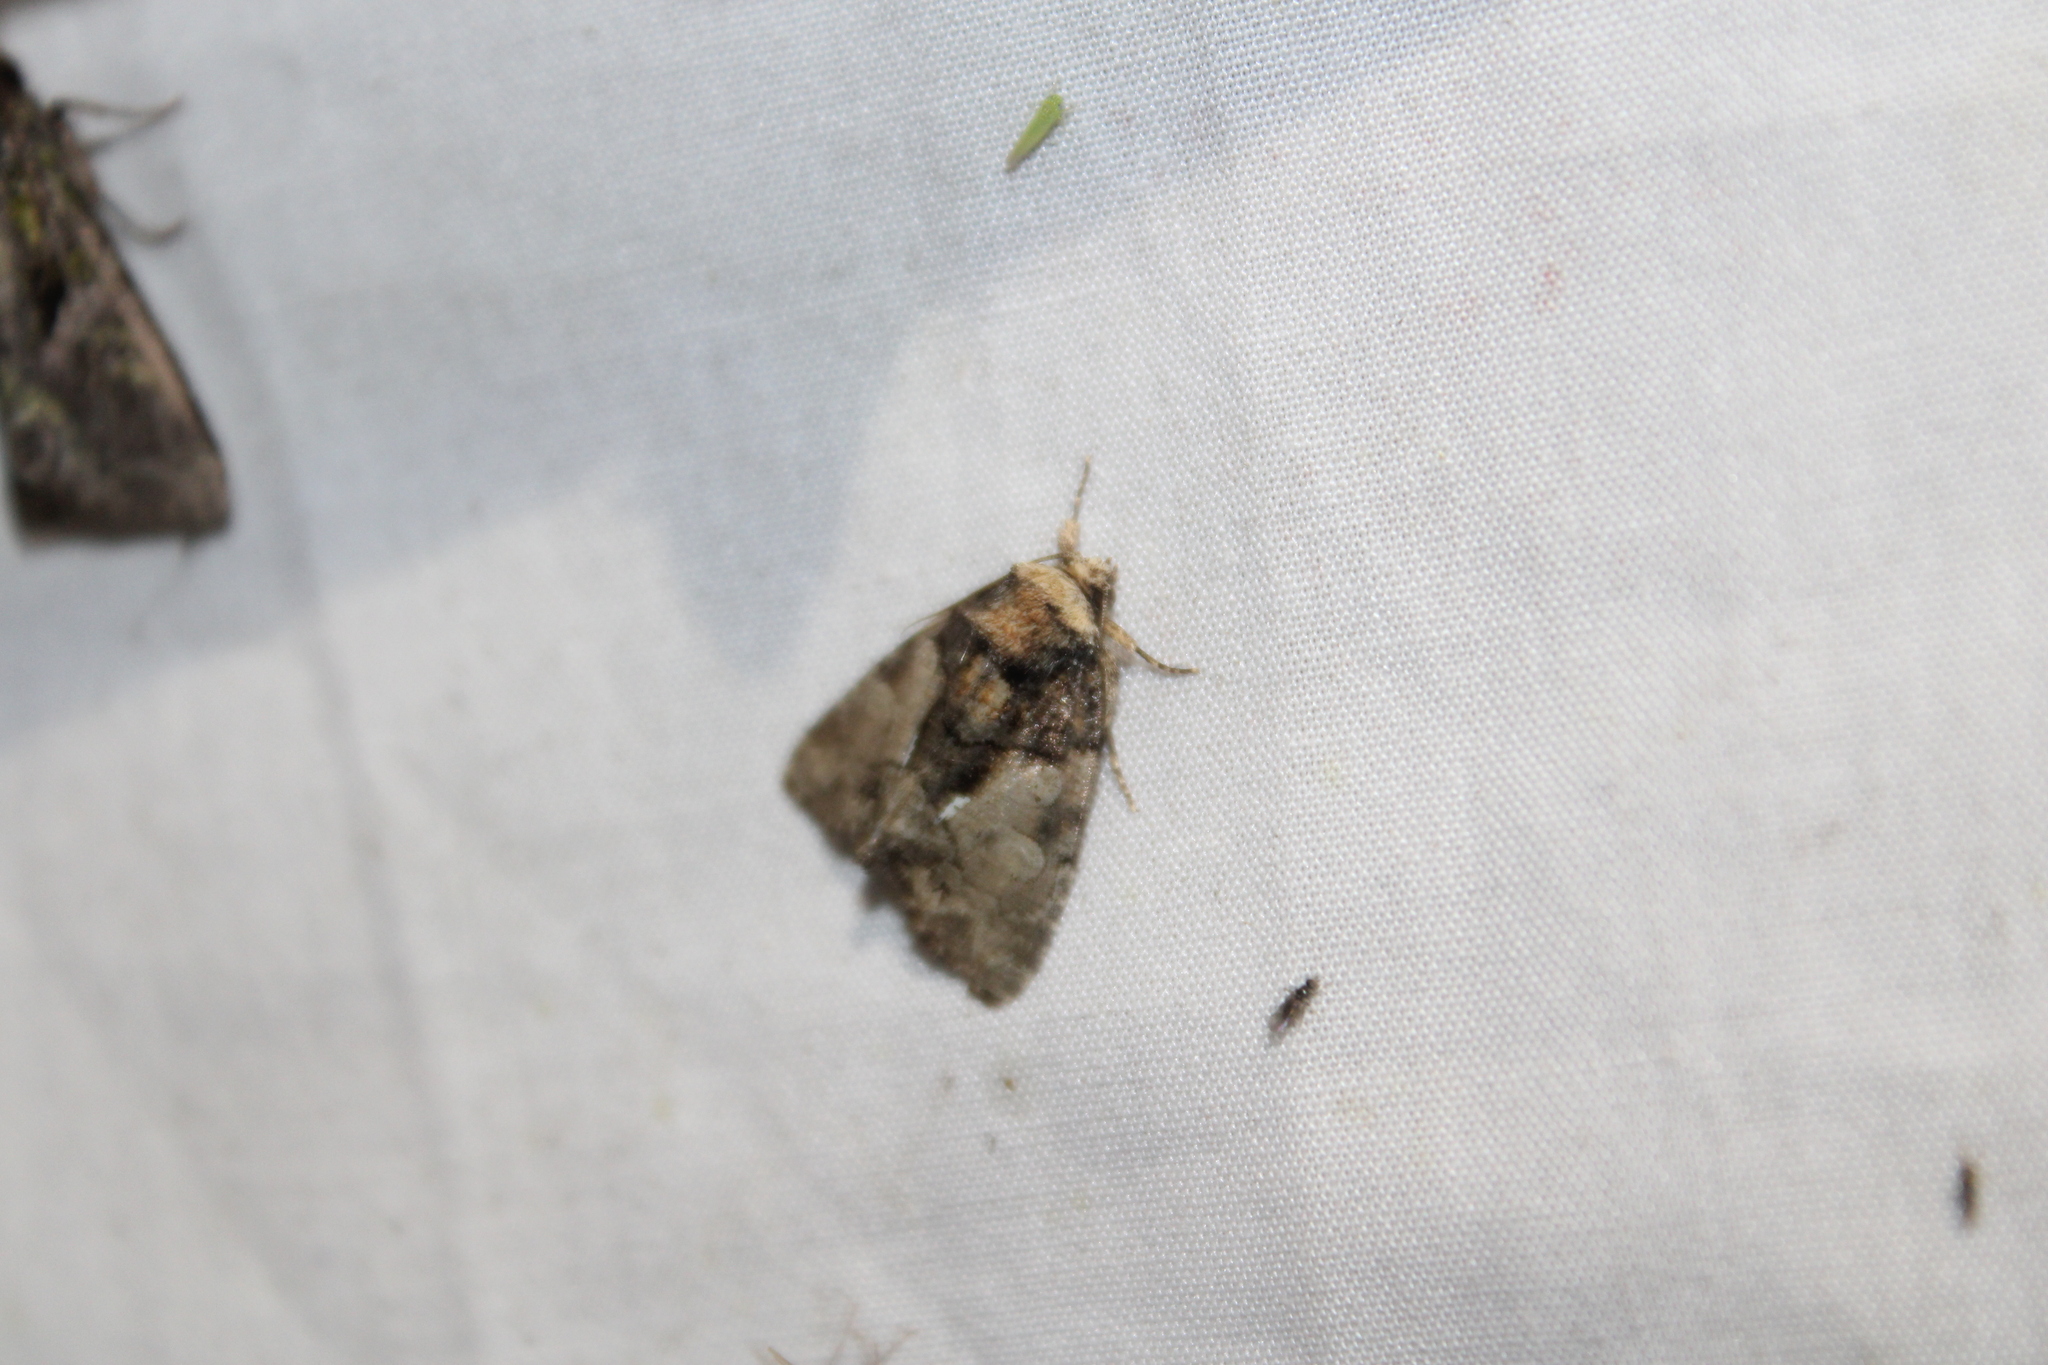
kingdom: Animalia
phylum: Arthropoda
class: Insecta
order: Lepidoptera
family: Noctuidae
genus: Chytonix
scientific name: Chytonix palliatricula
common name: Cloaked marvel
